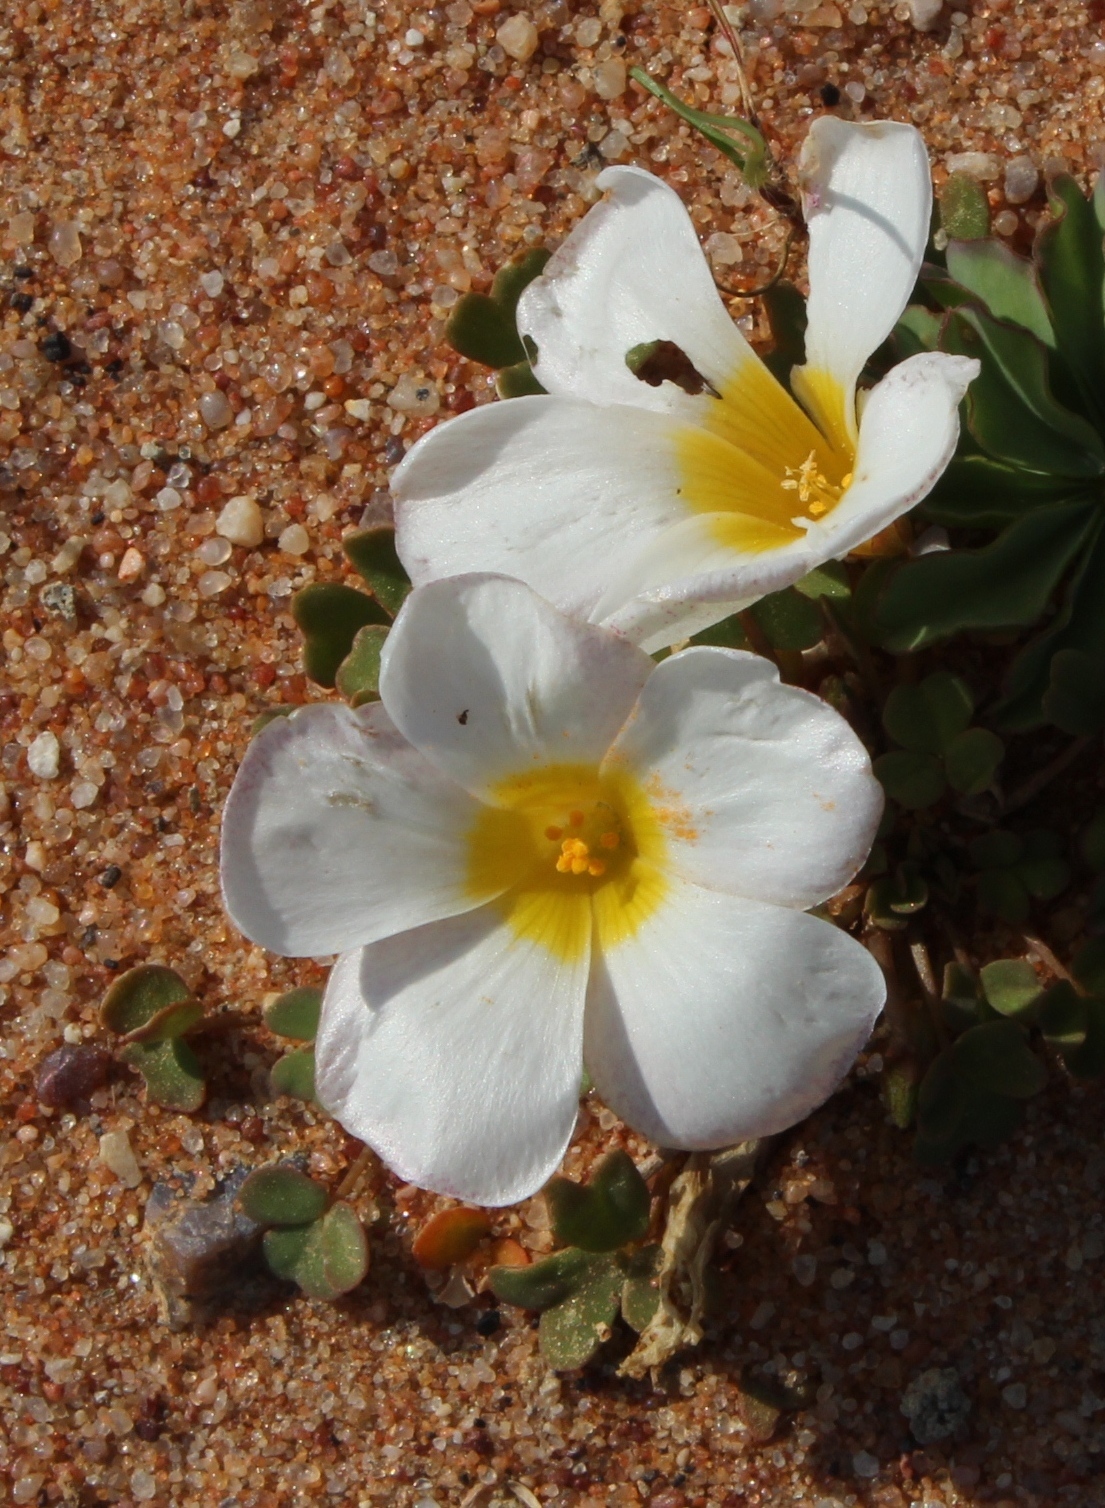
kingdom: Plantae
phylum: Tracheophyta
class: Magnoliopsida
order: Oxalidales
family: Oxalidaceae
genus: Oxalis
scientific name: Oxalis annae
